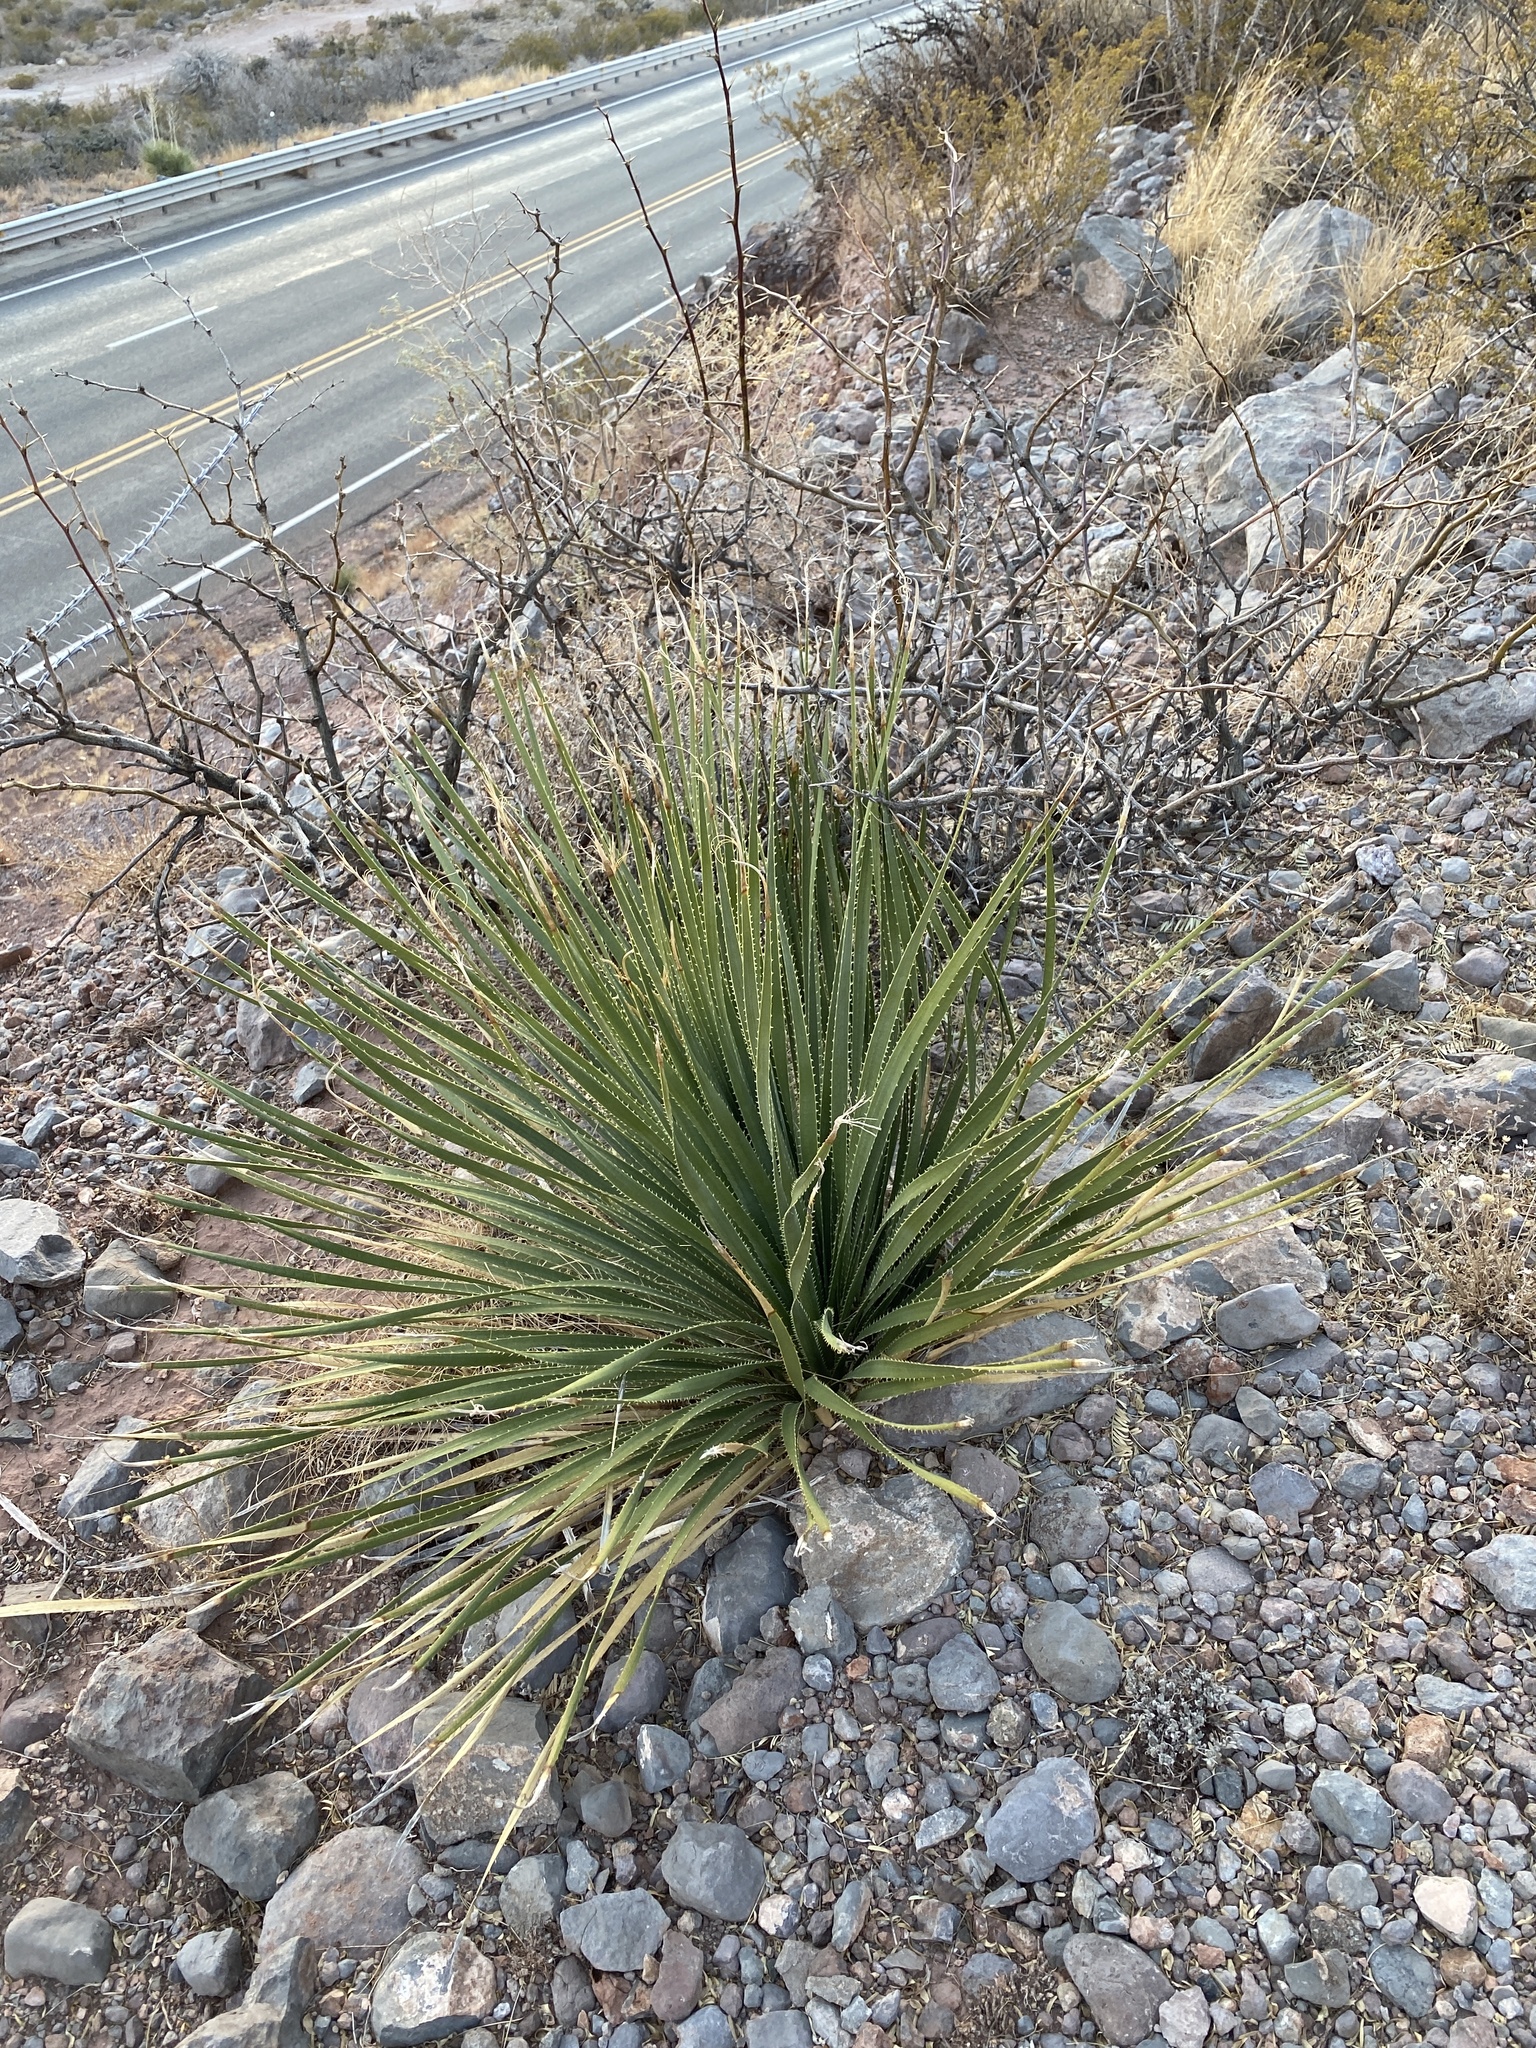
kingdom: Plantae
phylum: Tracheophyta
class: Liliopsida
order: Asparagales
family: Asparagaceae
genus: Dasylirion
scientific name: Dasylirion wheeleri
